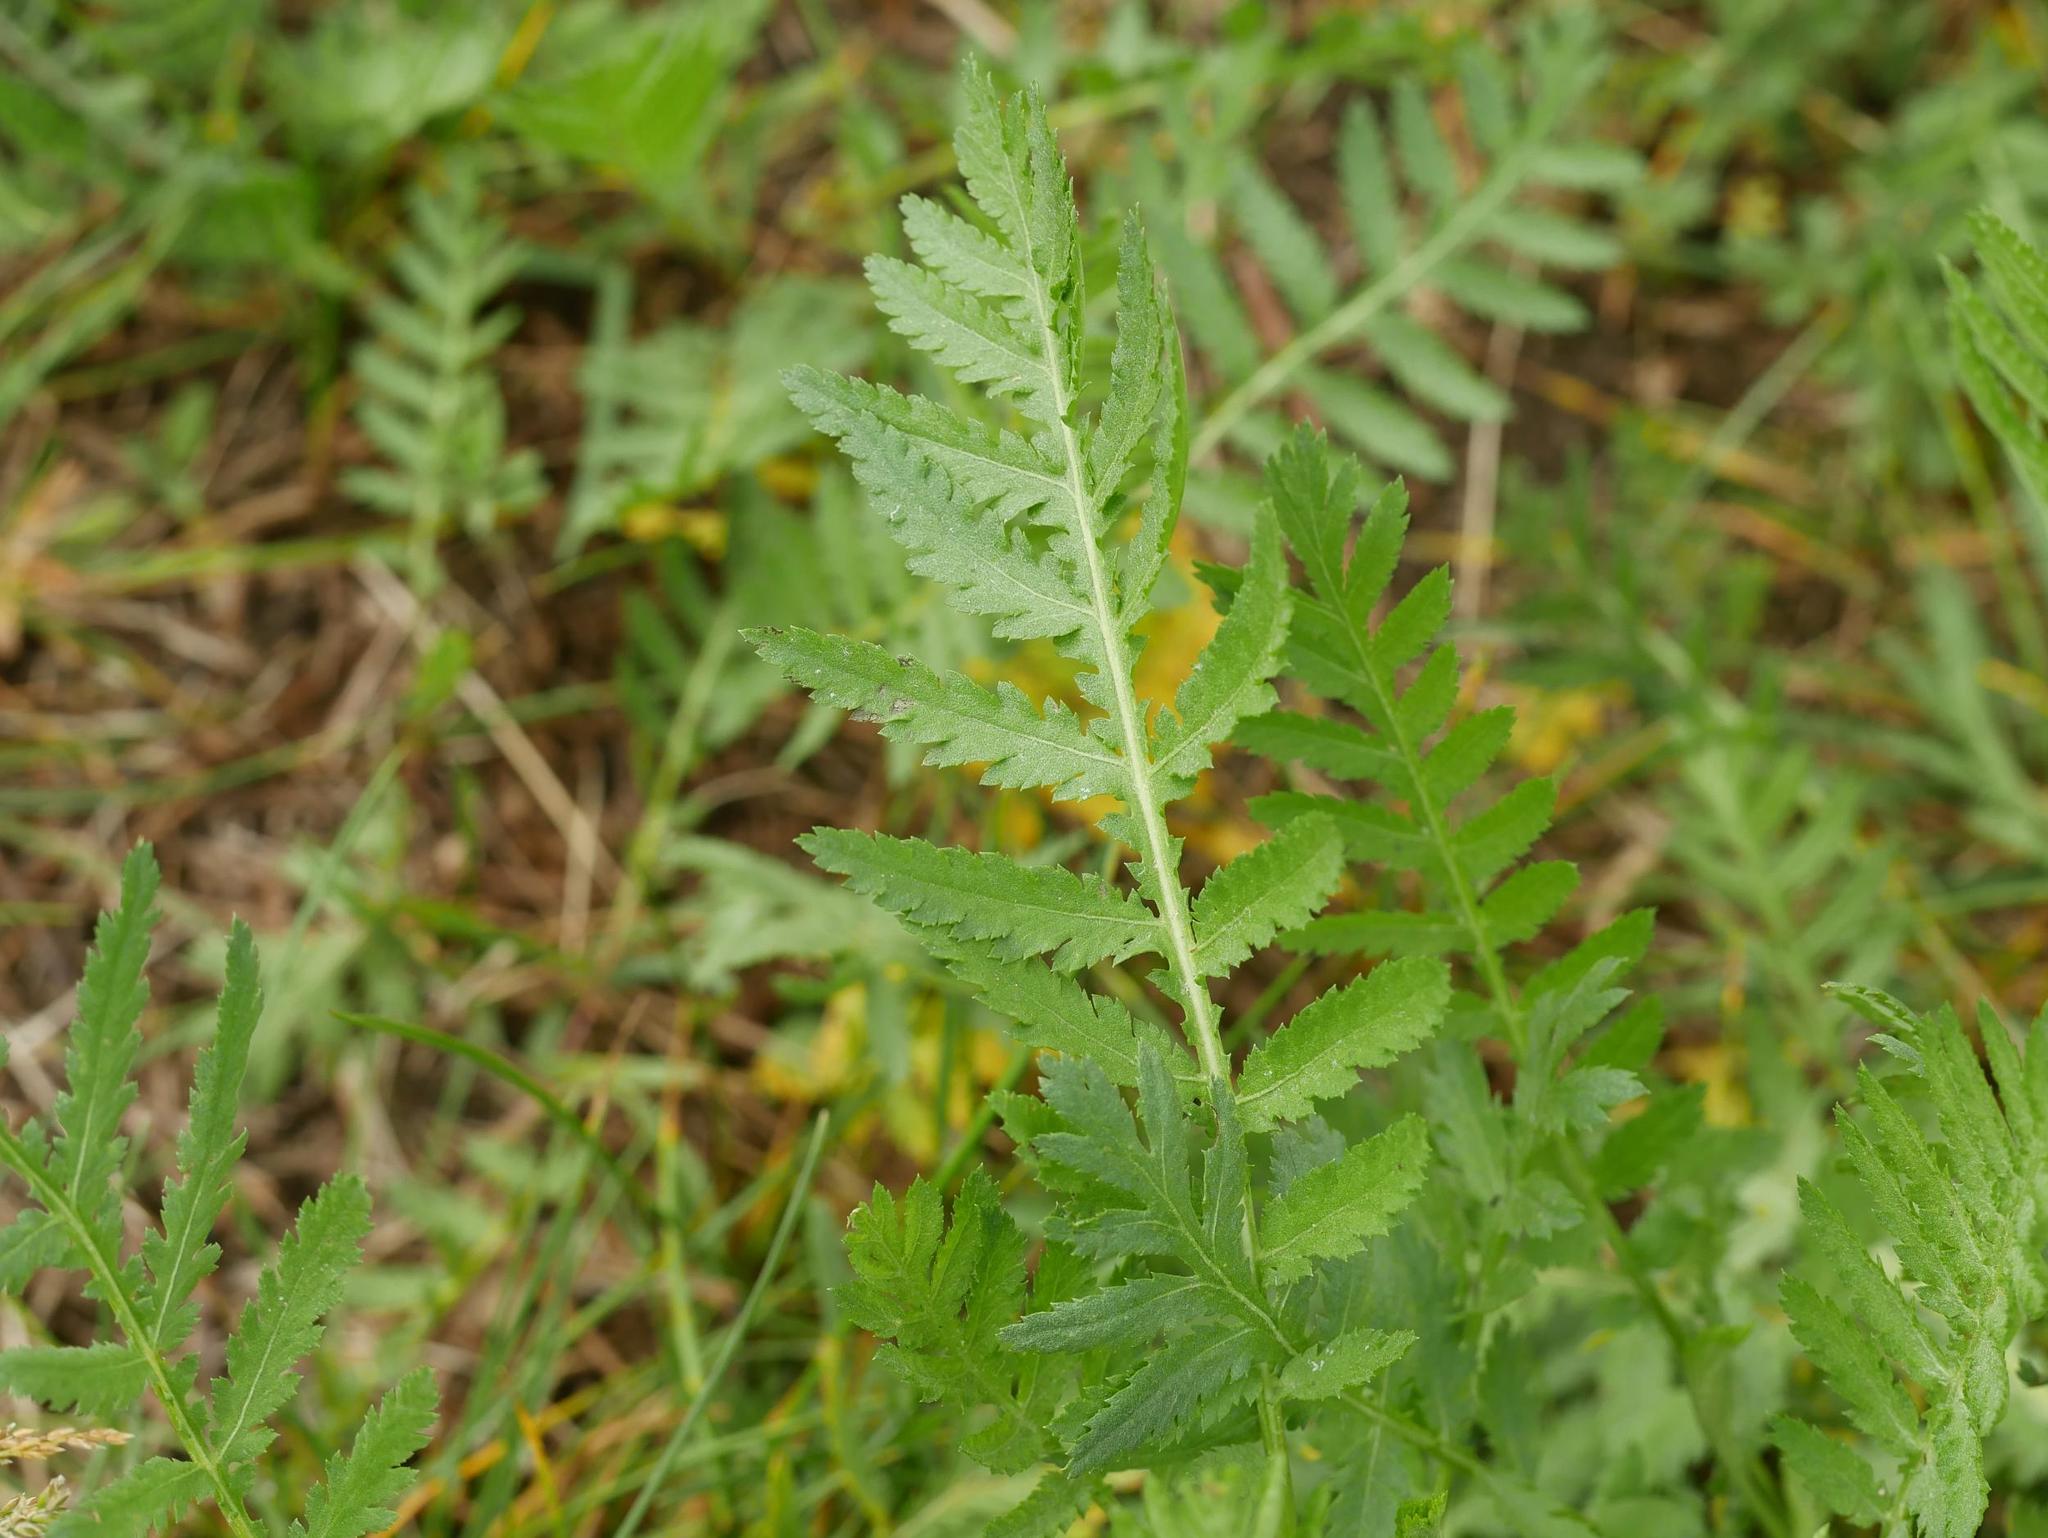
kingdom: Plantae
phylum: Tracheophyta
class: Magnoliopsida
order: Asterales
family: Asteraceae
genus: Tanacetum
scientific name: Tanacetum vulgare
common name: Common tansy
